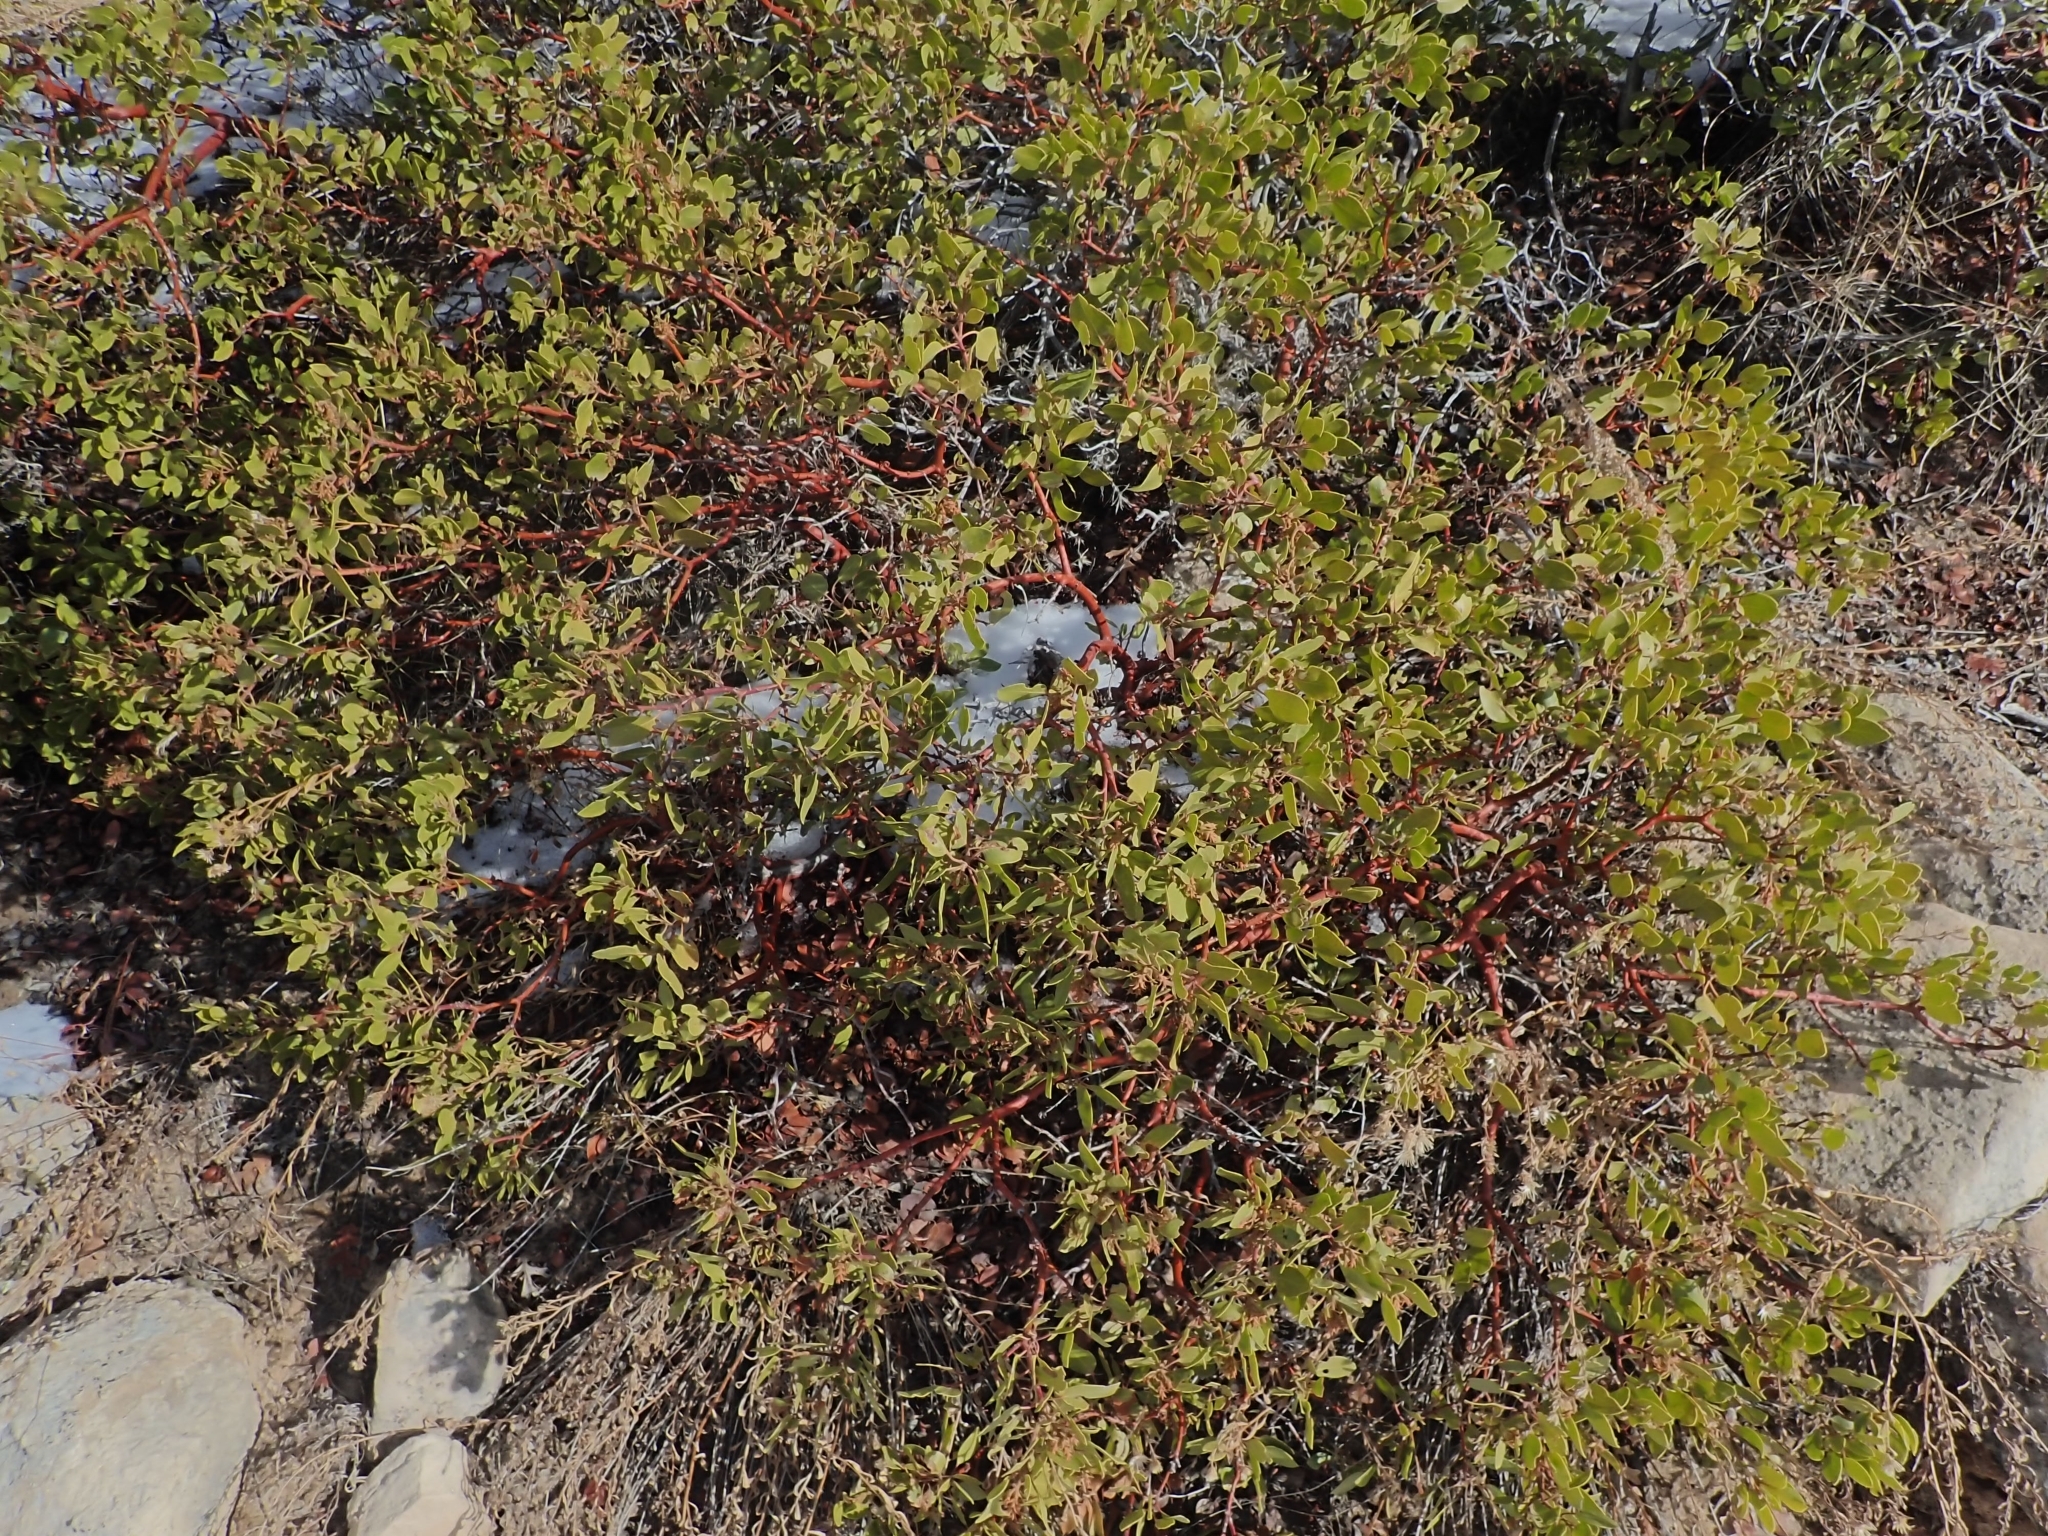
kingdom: Plantae
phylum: Tracheophyta
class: Magnoliopsida
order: Ericales
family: Ericaceae
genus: Arctostaphylos
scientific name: Arctostaphylos patula
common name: Green-leaf manzanita
